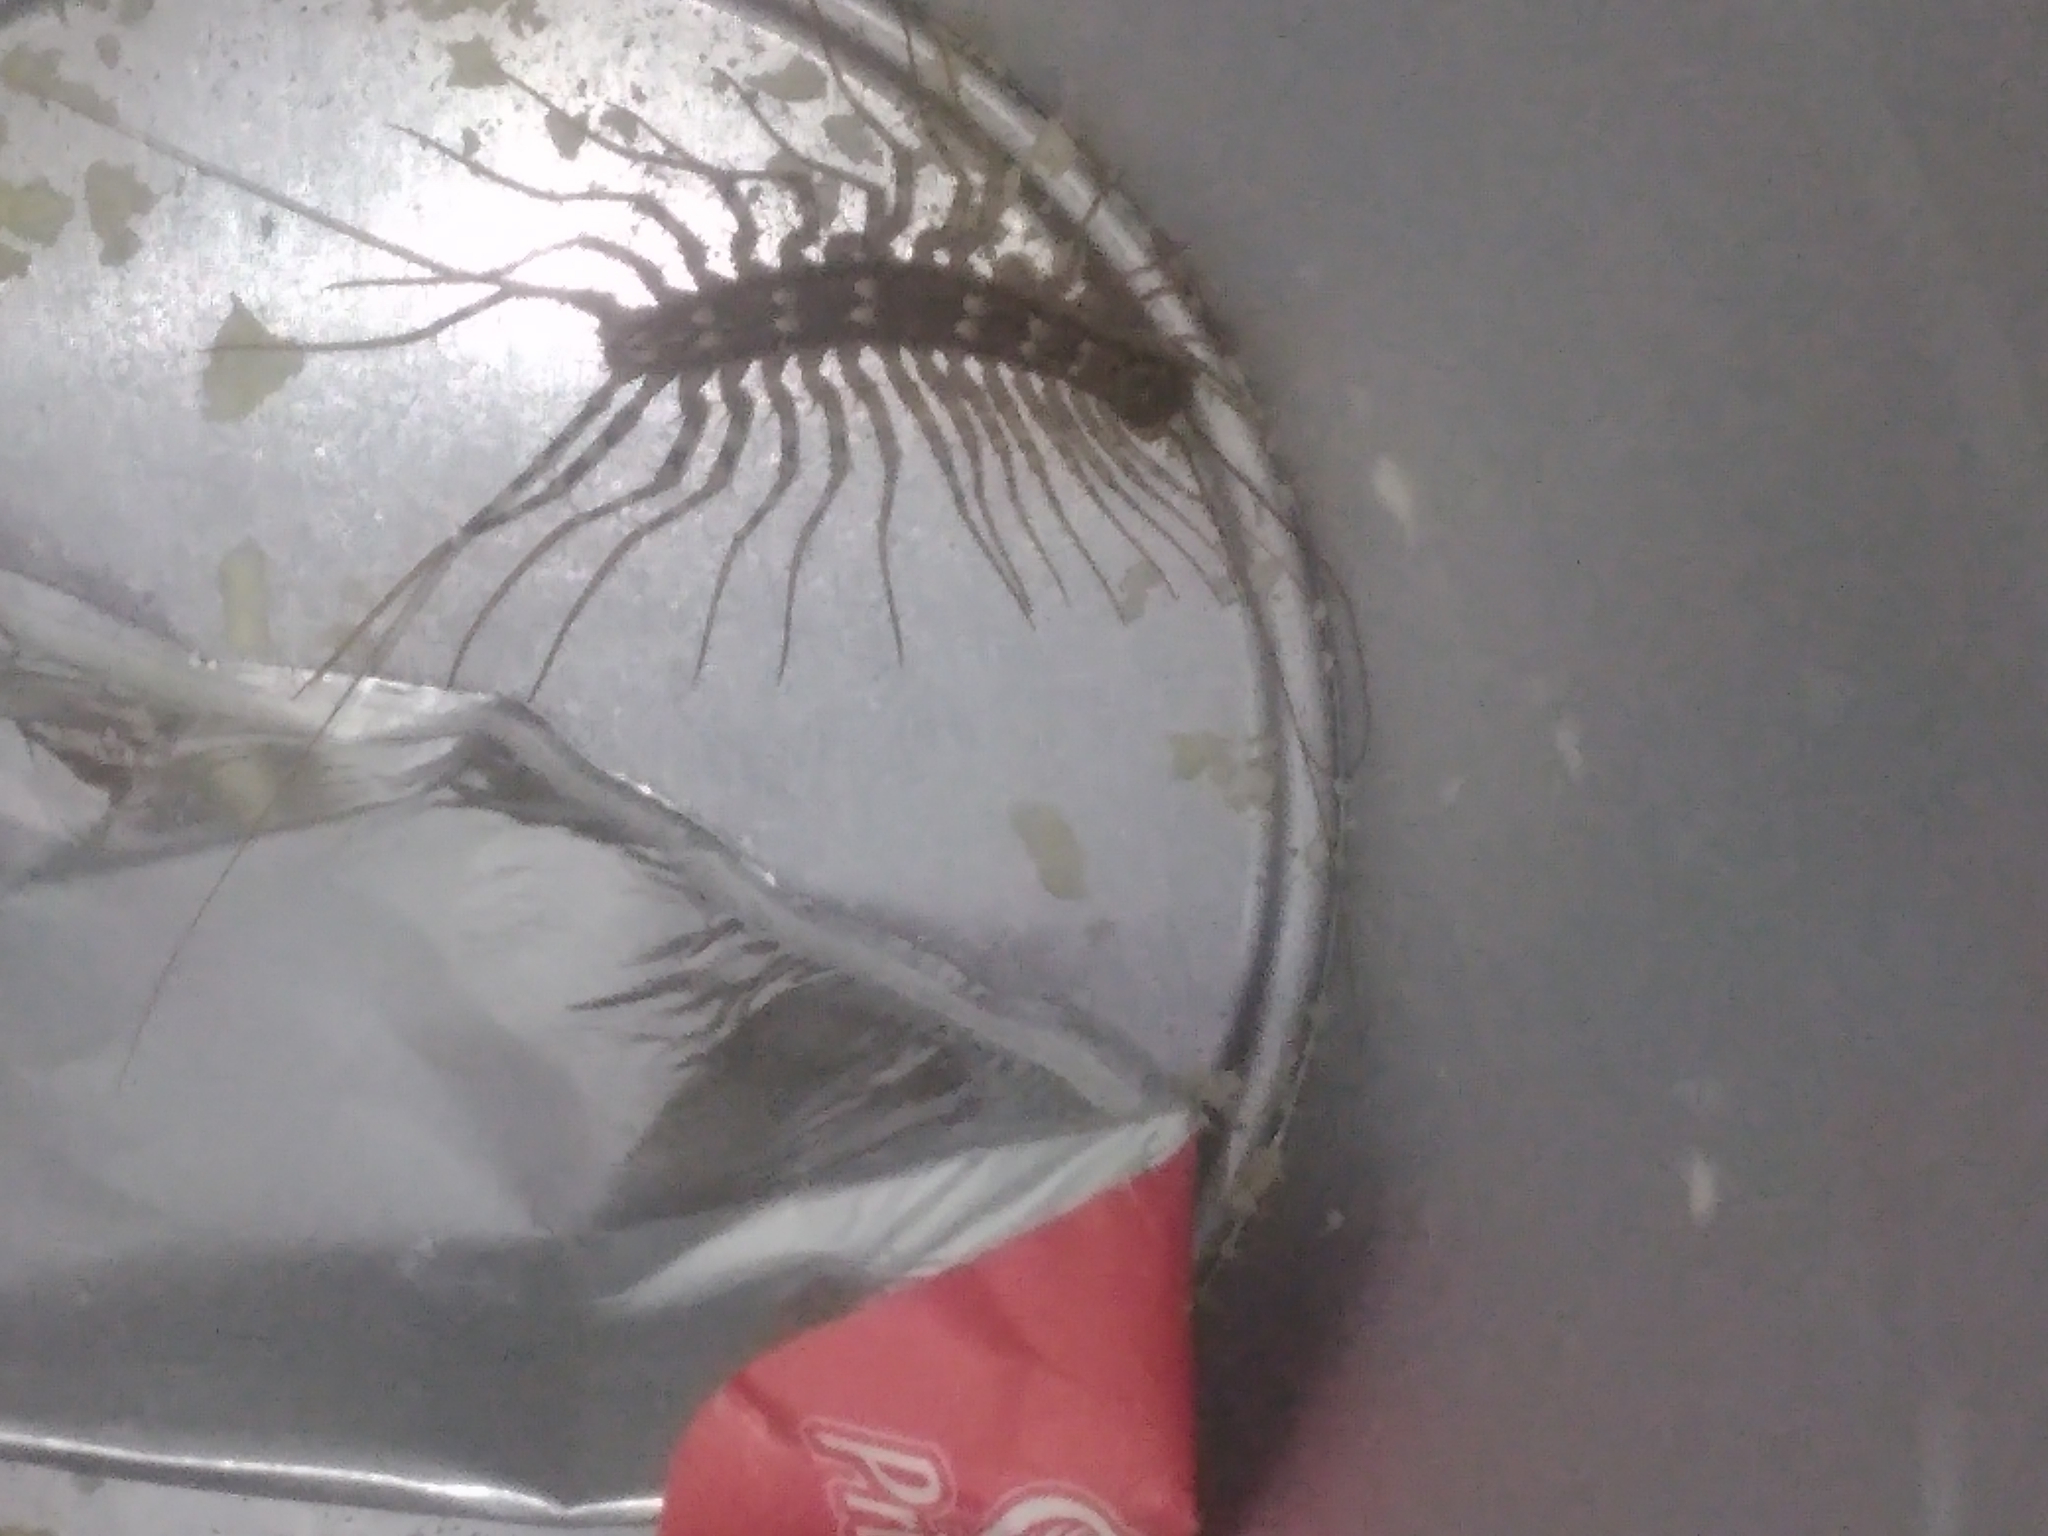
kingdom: Animalia
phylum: Arthropoda
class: Chilopoda
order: Scutigeromorpha
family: Scutigeridae
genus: Scutigera
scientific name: Scutigera coleoptrata
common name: House centipede
